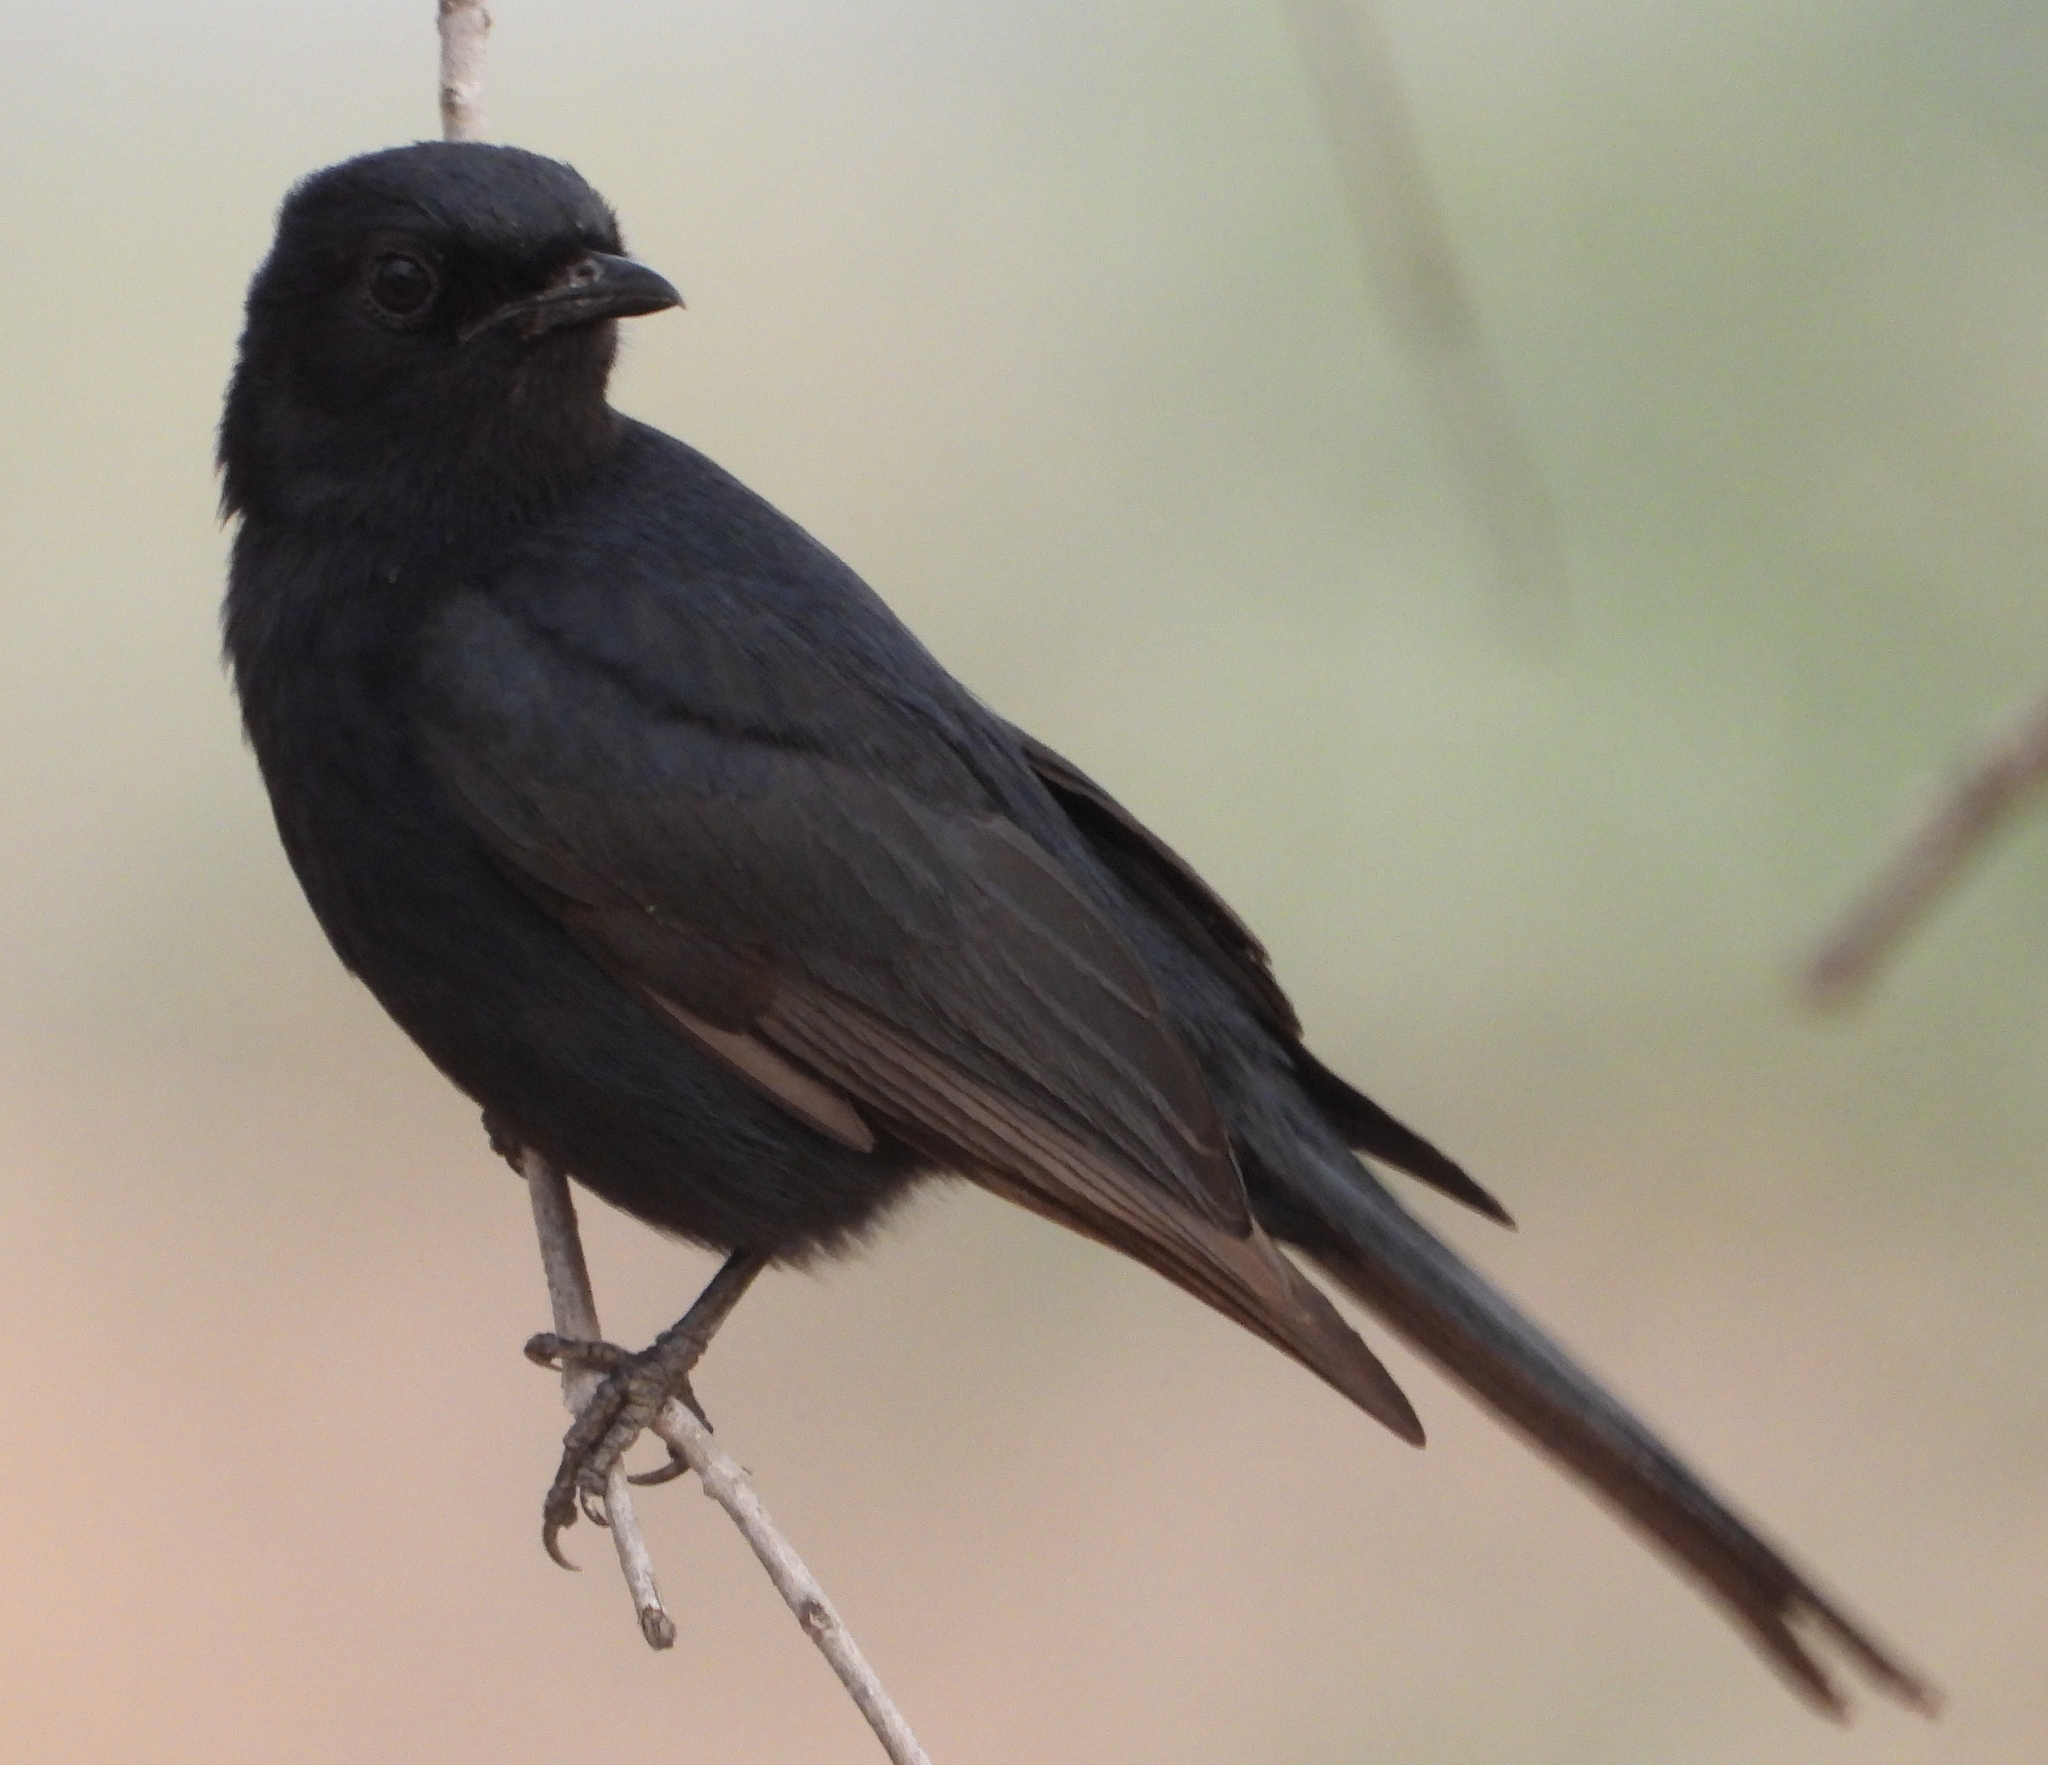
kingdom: Animalia
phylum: Chordata
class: Aves
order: Passeriformes
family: Muscicapidae
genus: Melaenornis
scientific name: Melaenornis pammelaina
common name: Southern black flycatcher
